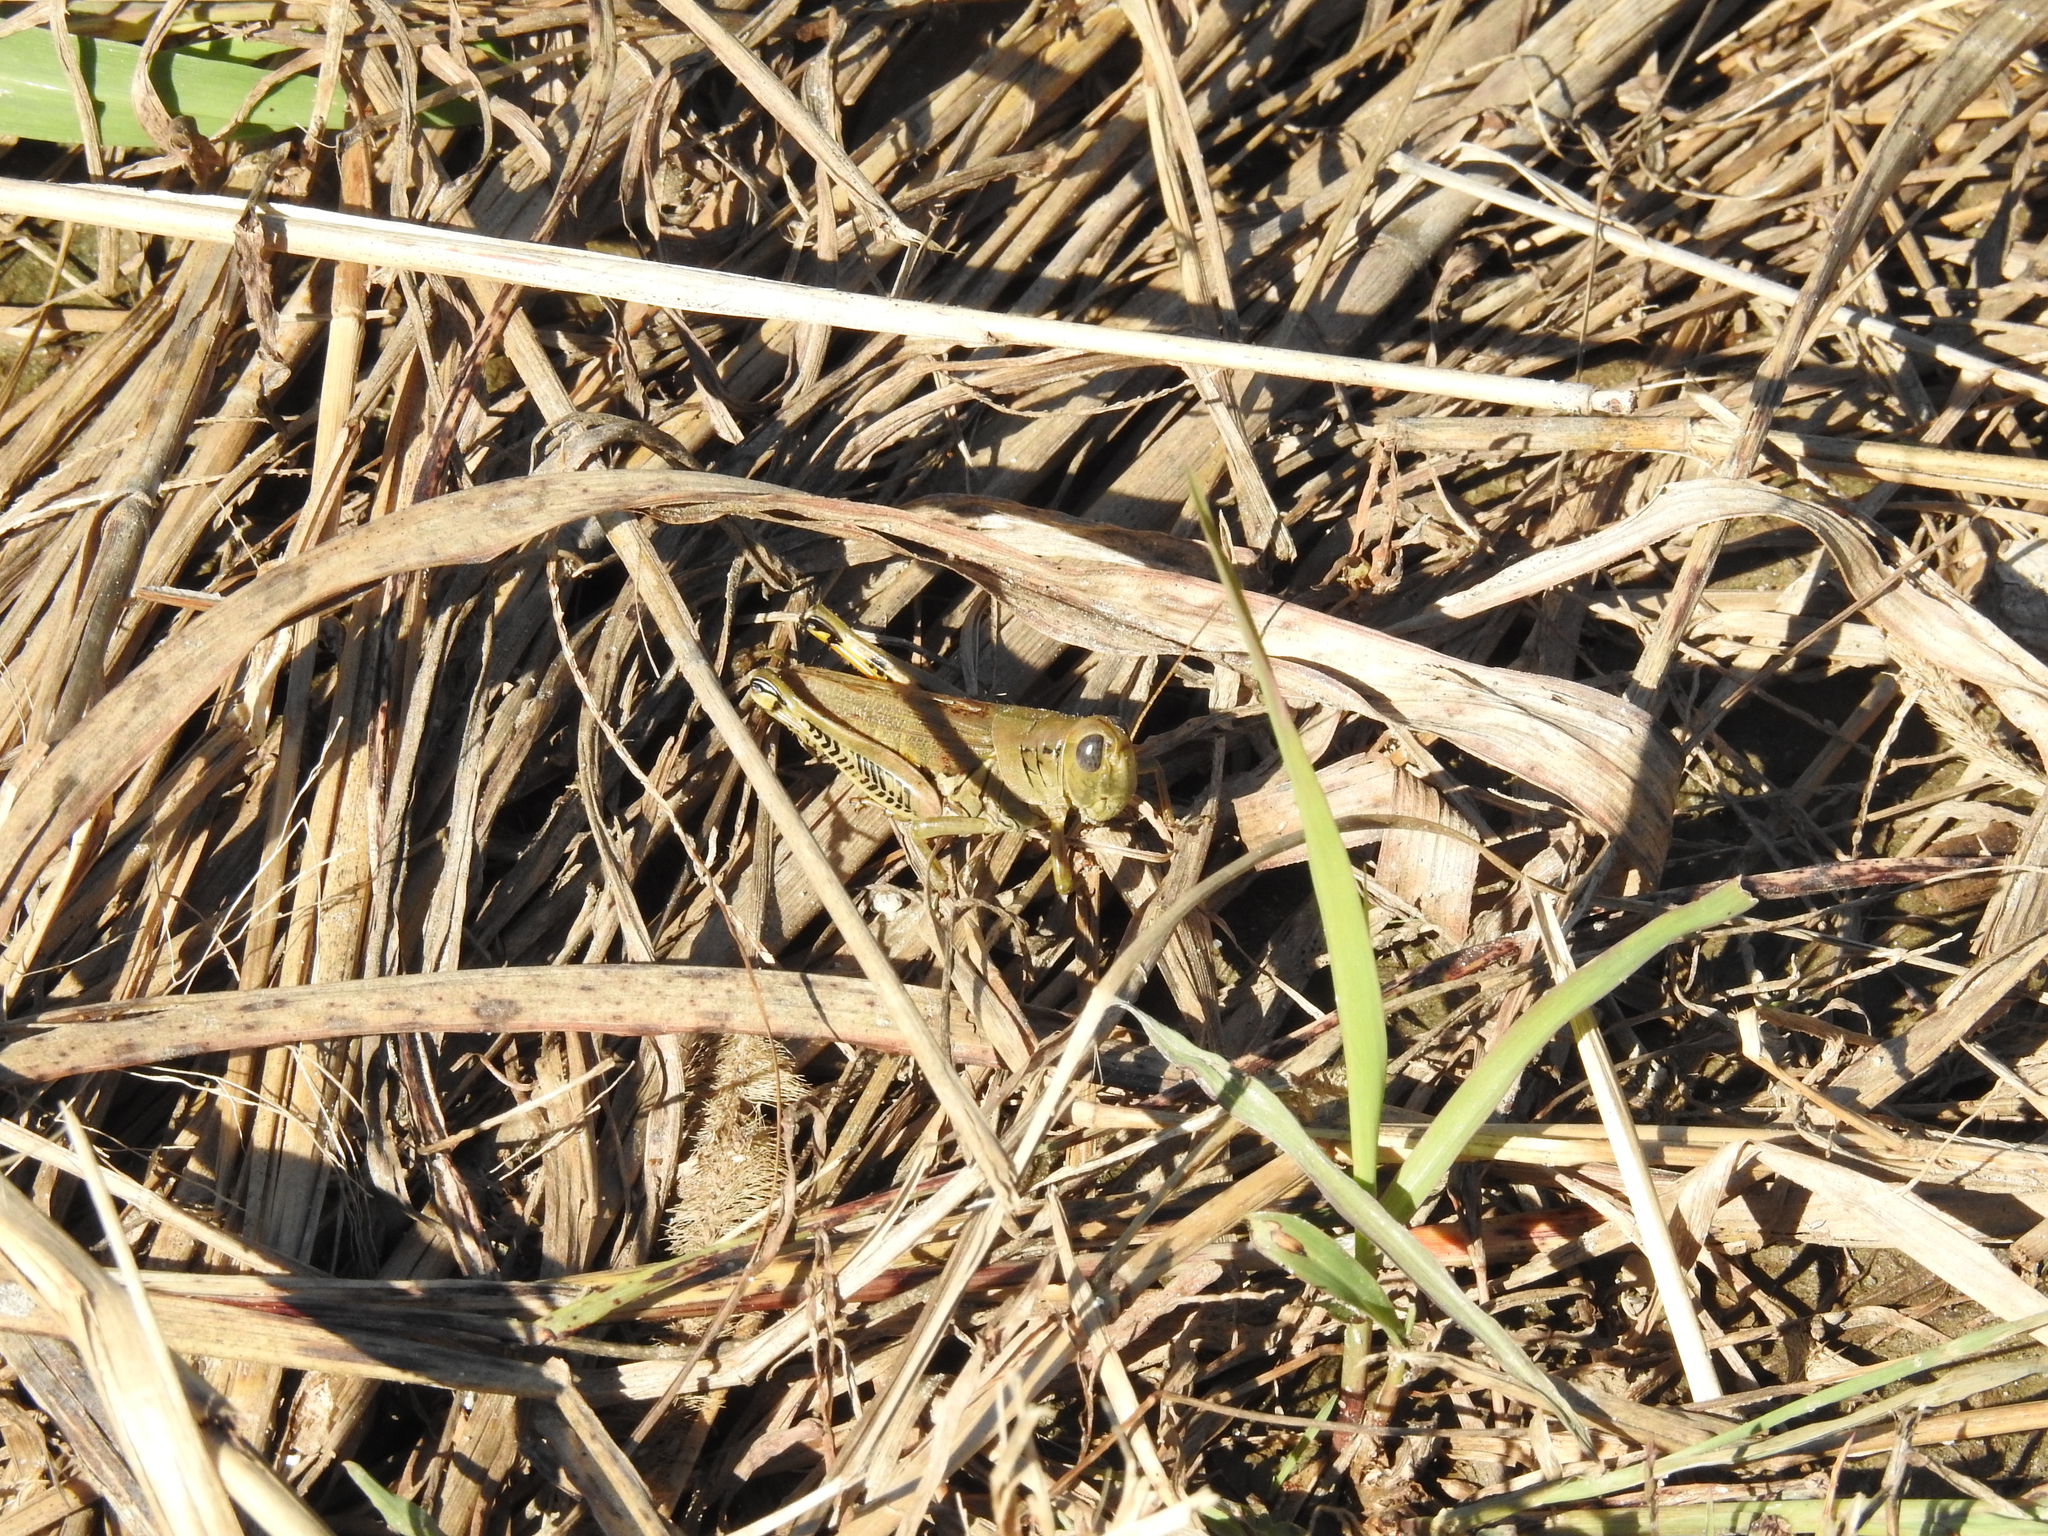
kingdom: Animalia
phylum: Arthropoda
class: Insecta
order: Orthoptera
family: Acrididae
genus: Melanoplus
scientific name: Melanoplus differentialis
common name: Differential grasshopper
